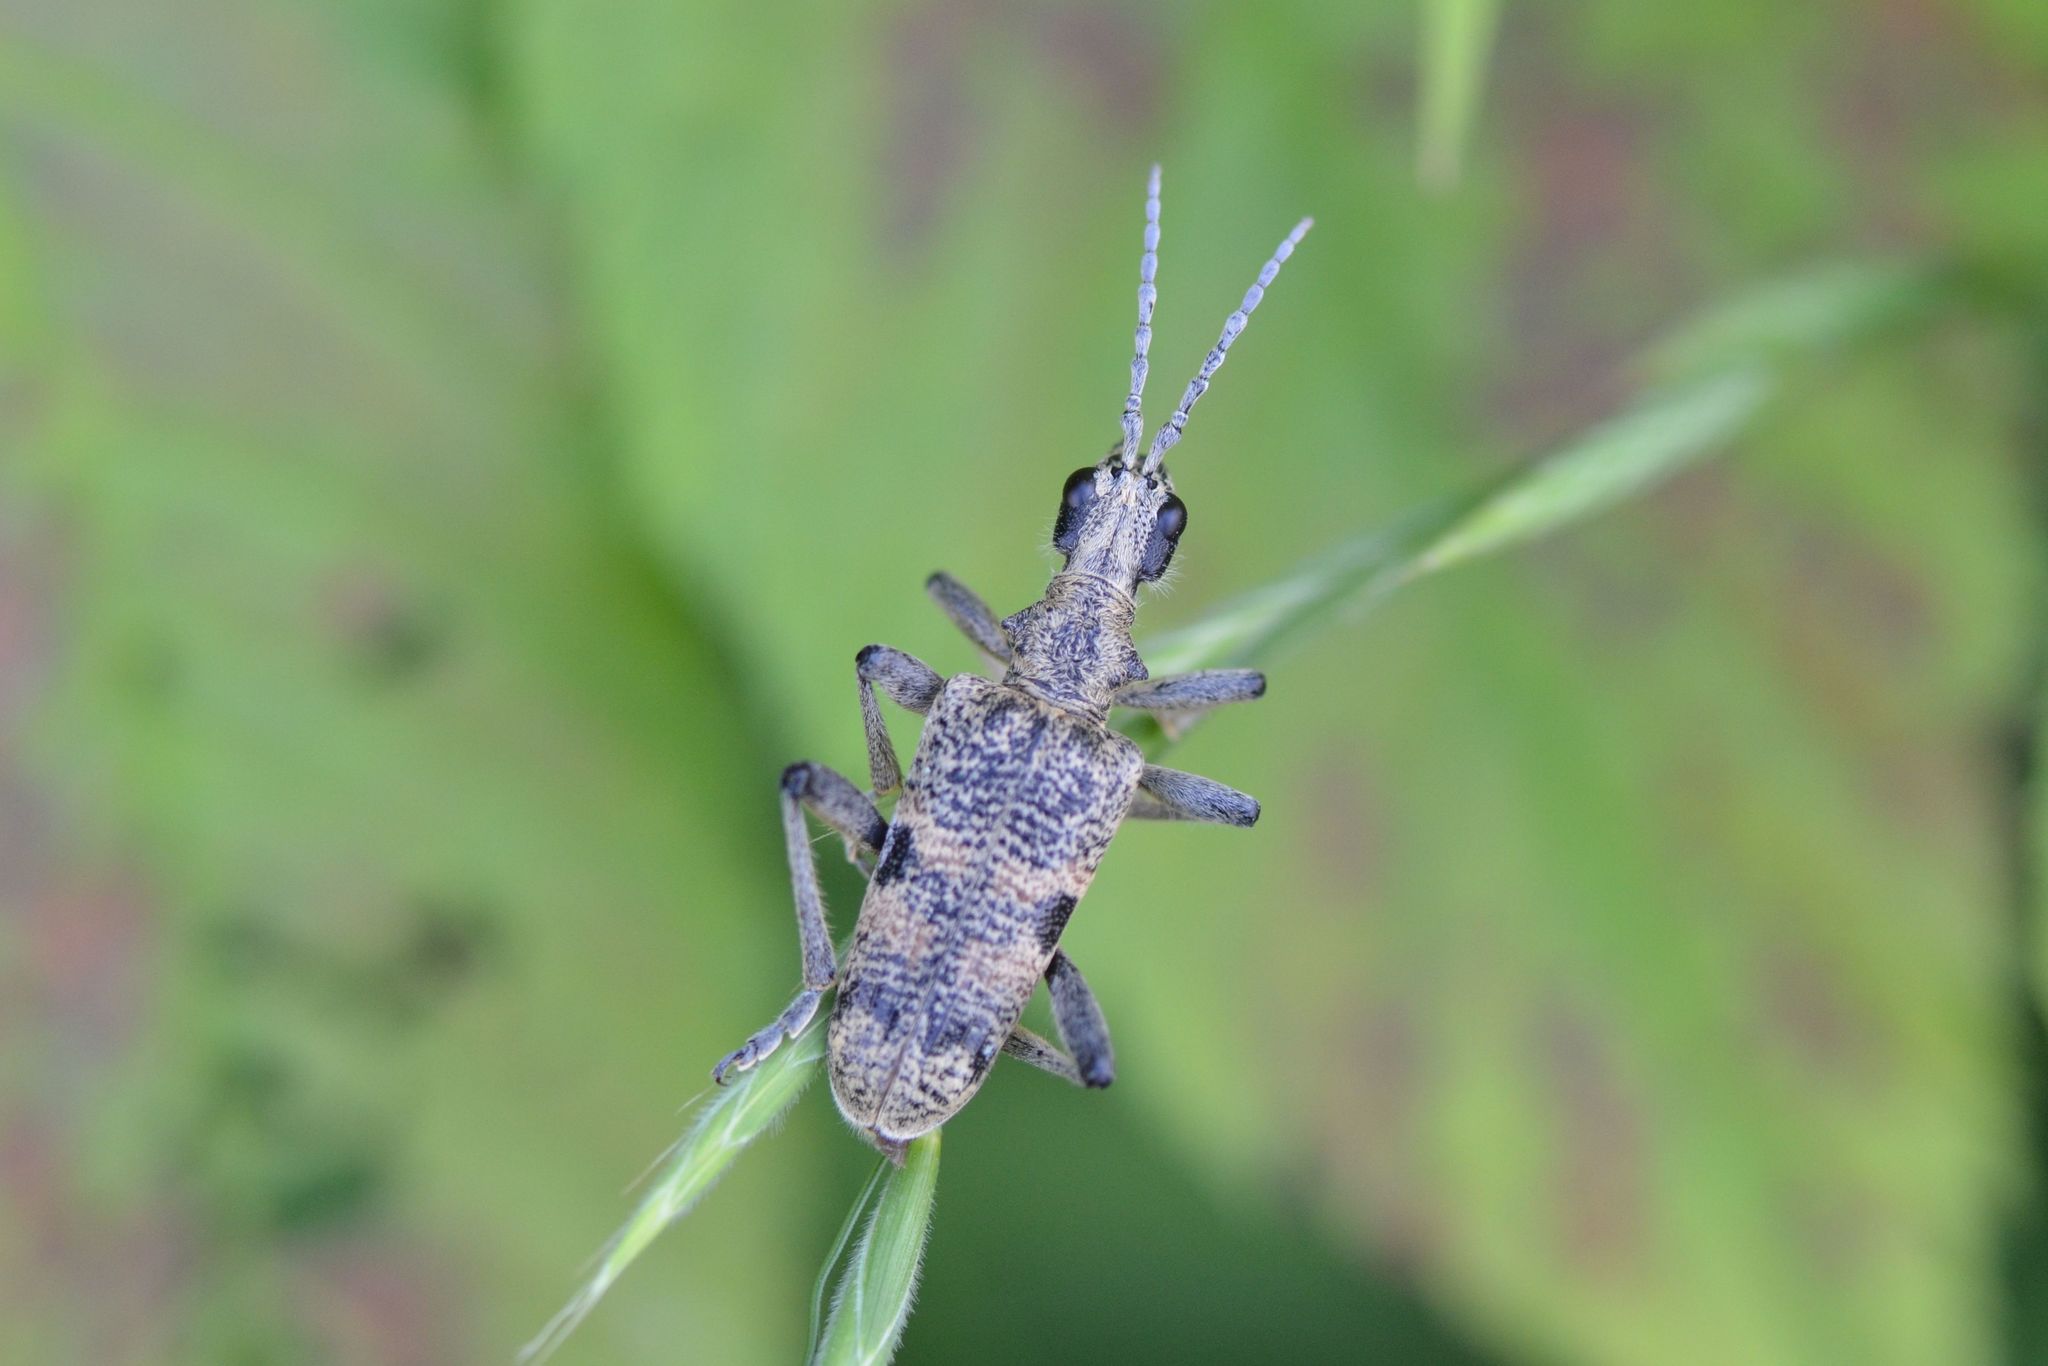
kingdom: Animalia
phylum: Arthropoda
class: Insecta
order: Coleoptera
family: Cerambycidae
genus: Rhagium
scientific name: Rhagium mordax
